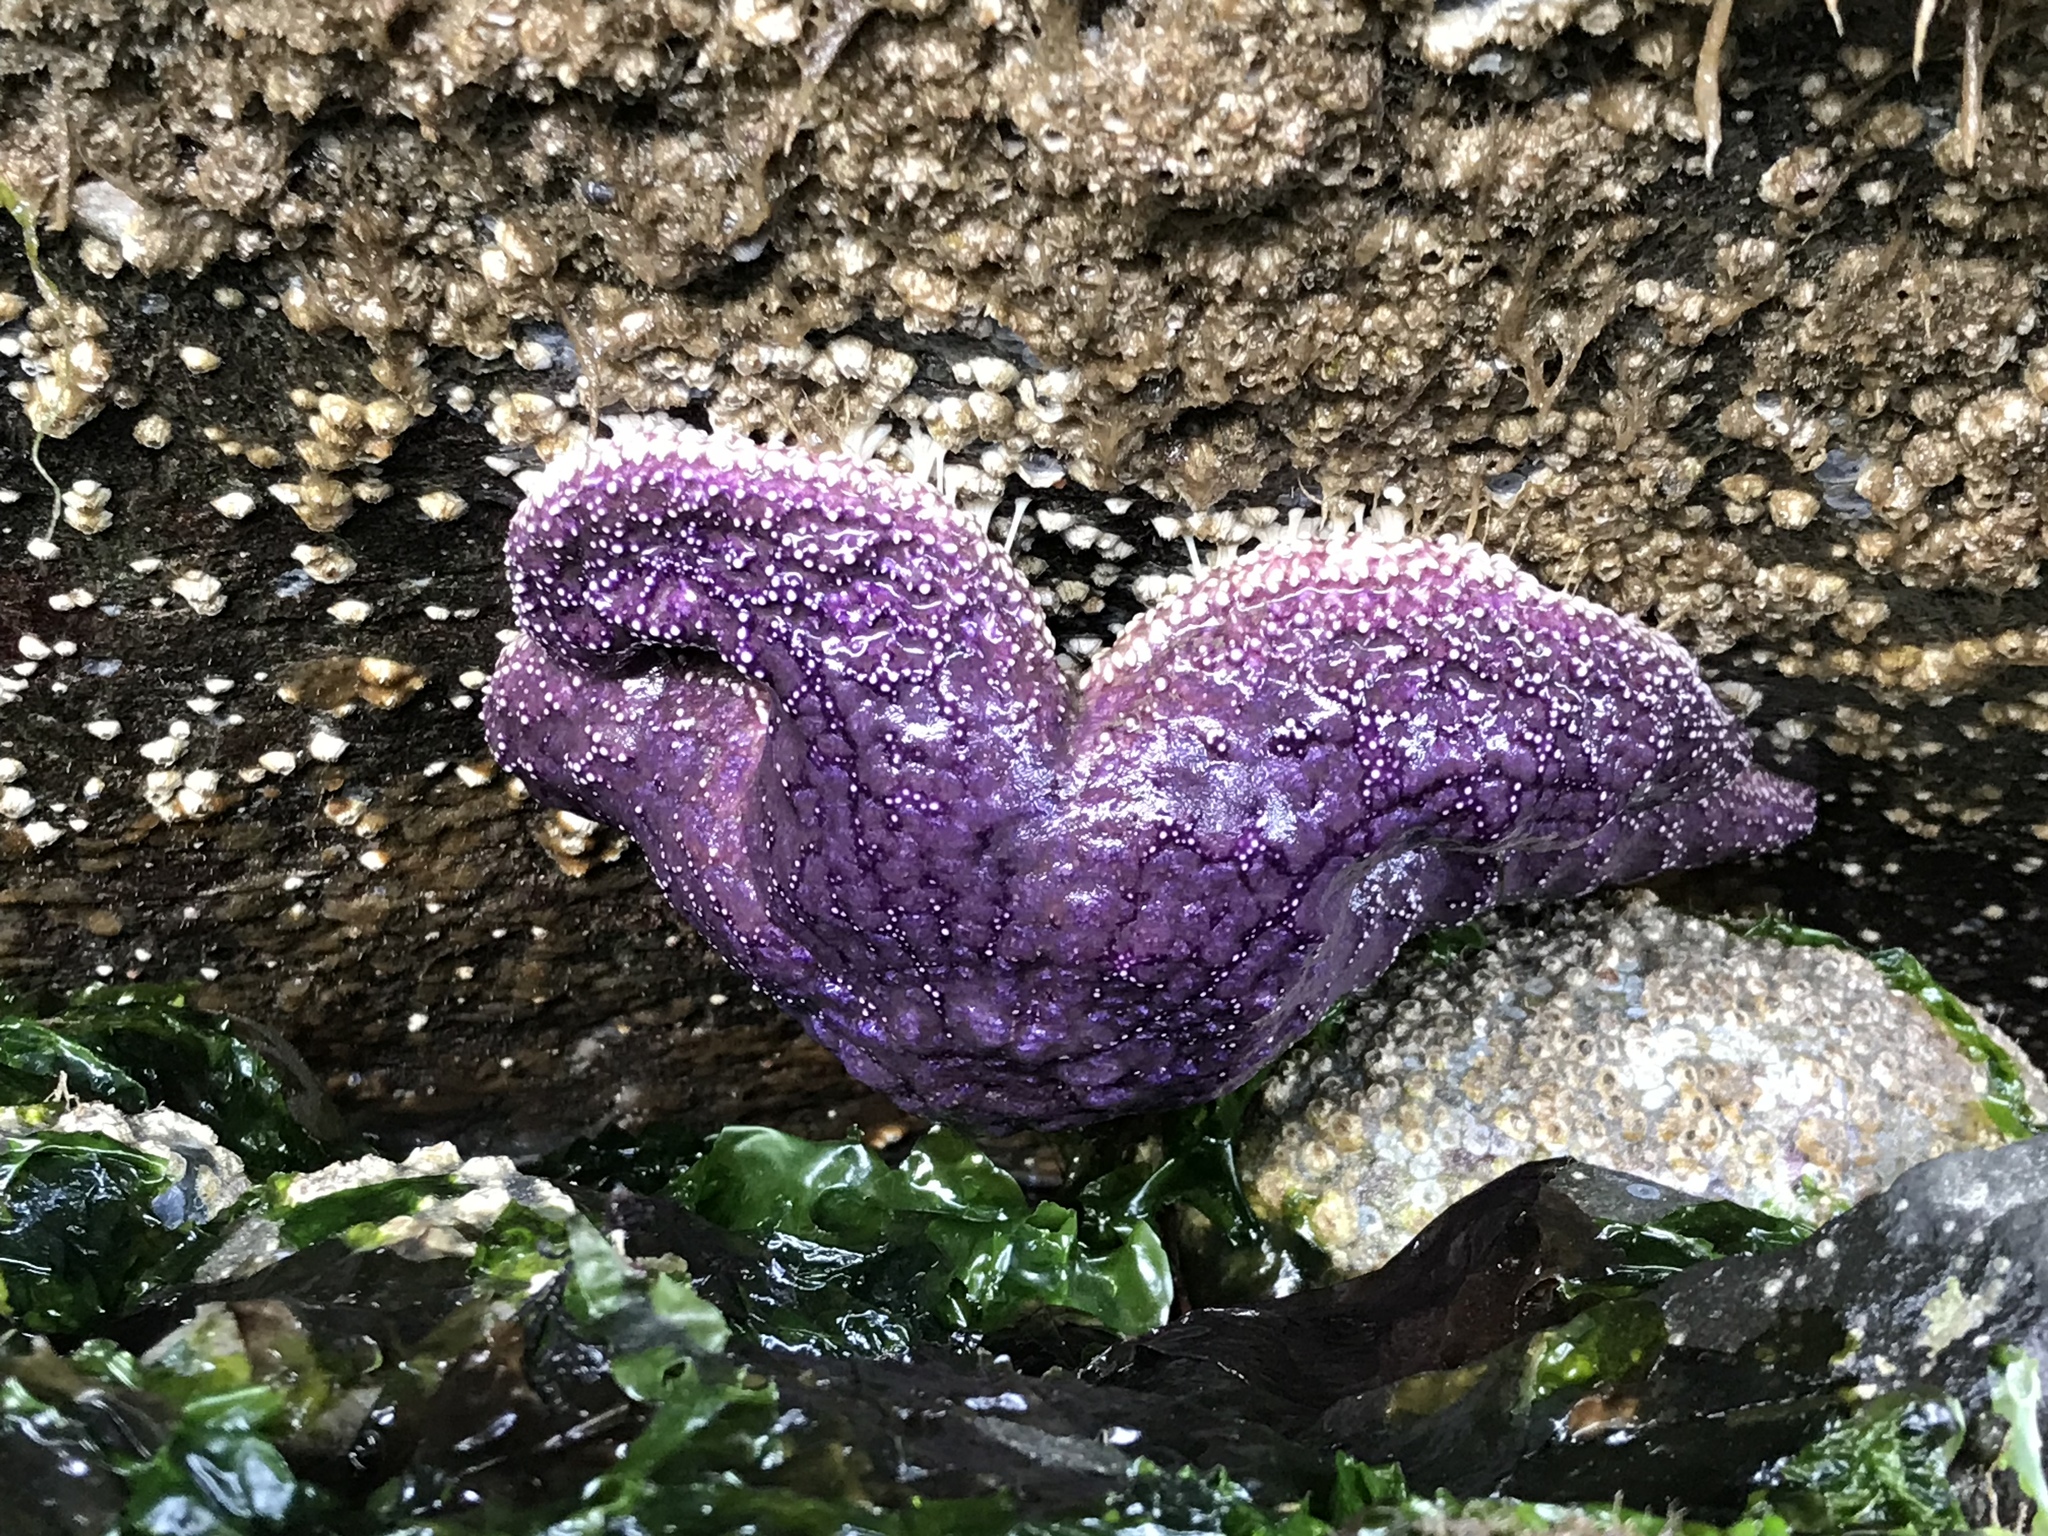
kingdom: Animalia
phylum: Echinodermata
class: Asteroidea
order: Forcipulatida
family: Asteriidae
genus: Pisaster
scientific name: Pisaster ochraceus
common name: Ochre stars
